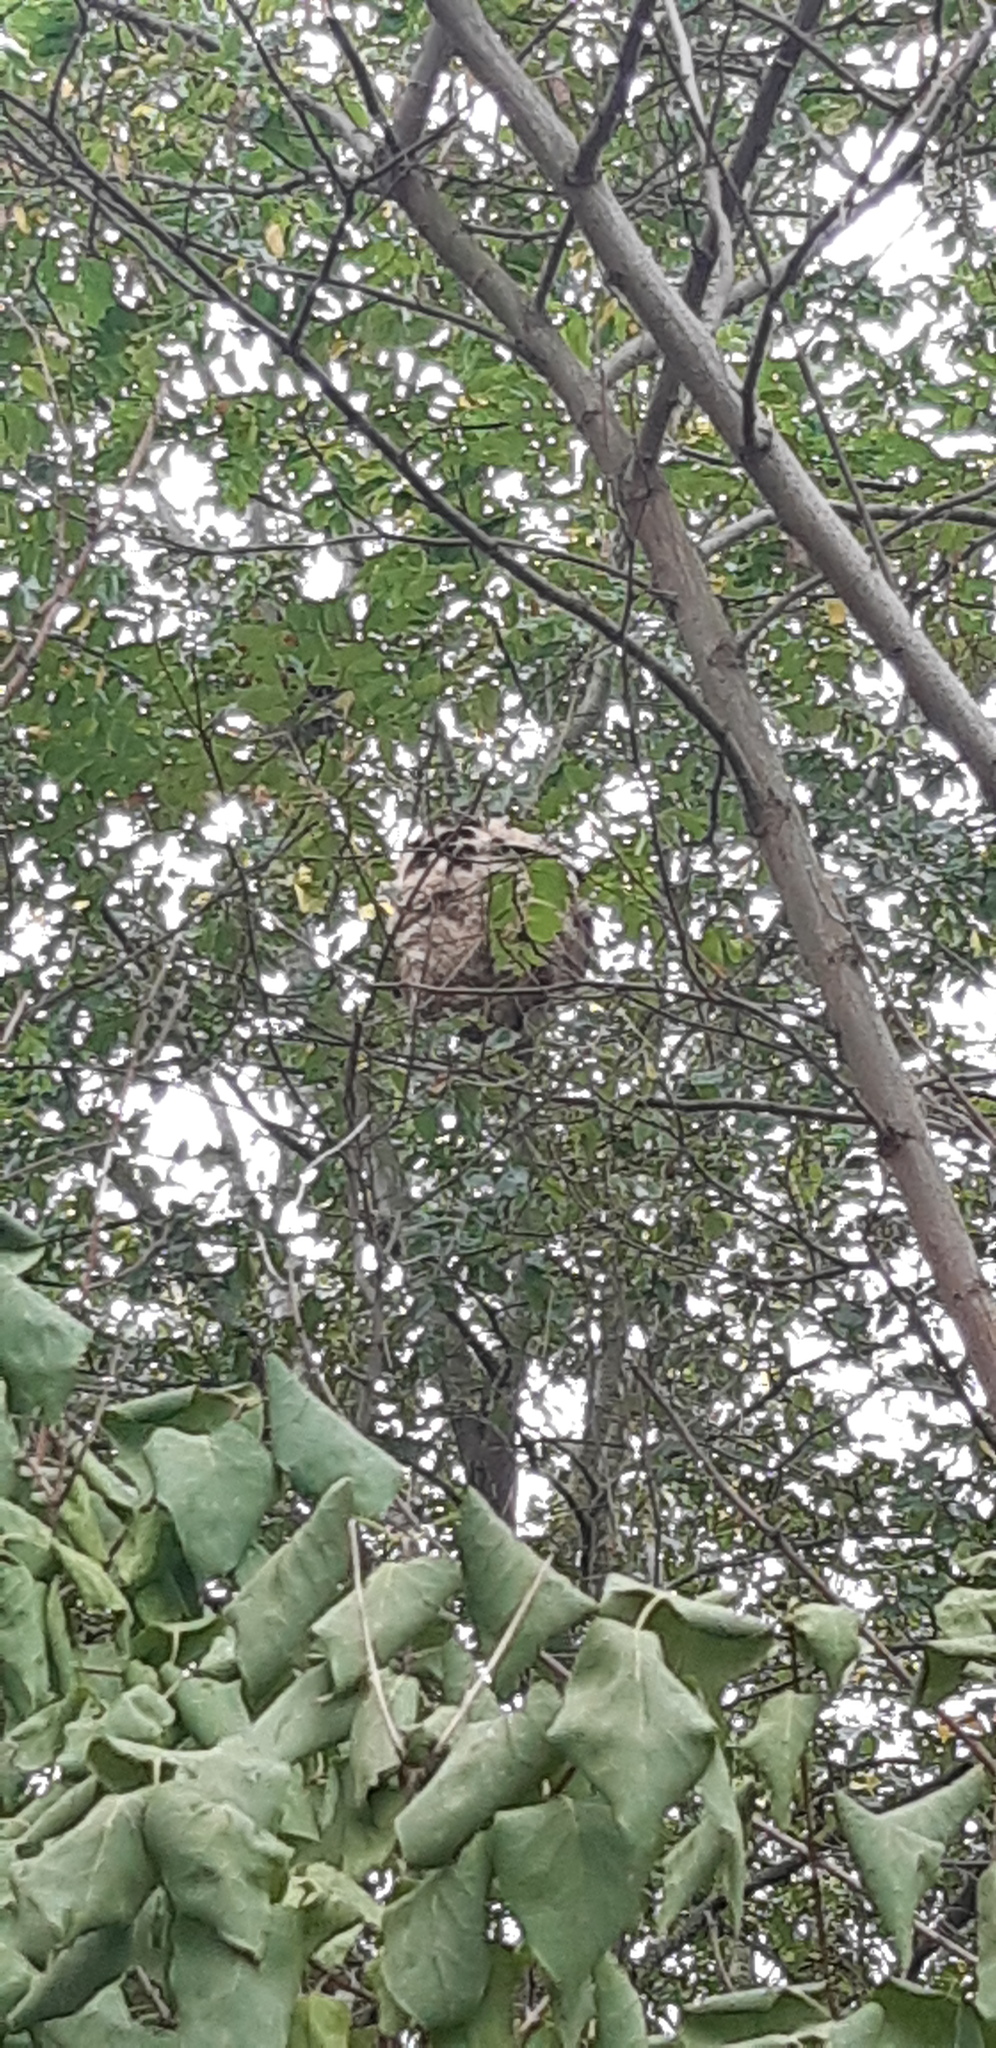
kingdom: Animalia
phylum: Arthropoda
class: Insecta
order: Hymenoptera
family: Vespidae
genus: Vespa
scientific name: Vespa velutina
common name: Asian hornet
